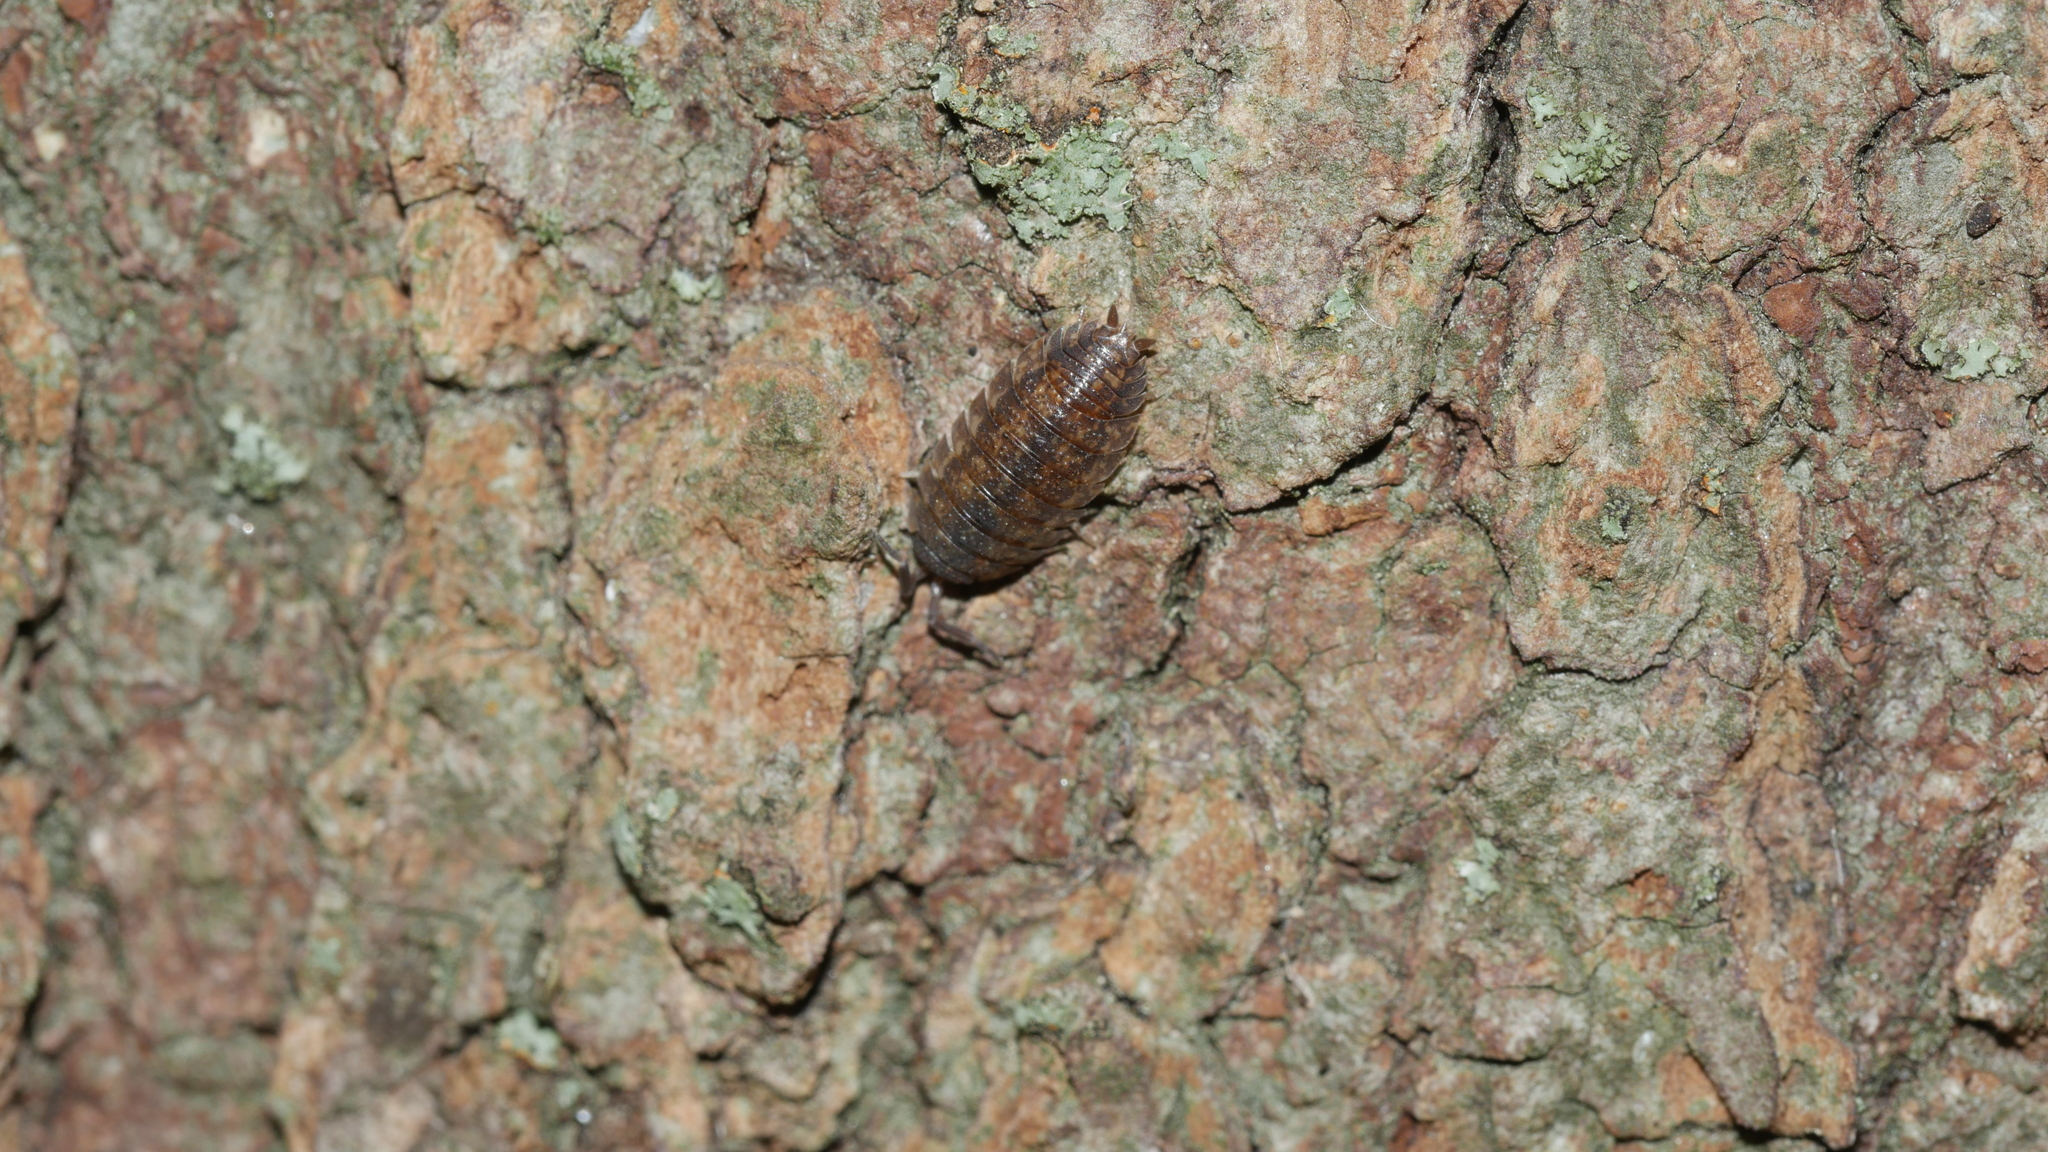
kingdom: Animalia
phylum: Arthropoda
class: Malacostraca
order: Isopoda
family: Porcellionidae
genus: Porcellio
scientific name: Porcellio scaber
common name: Common rough woodlouse
